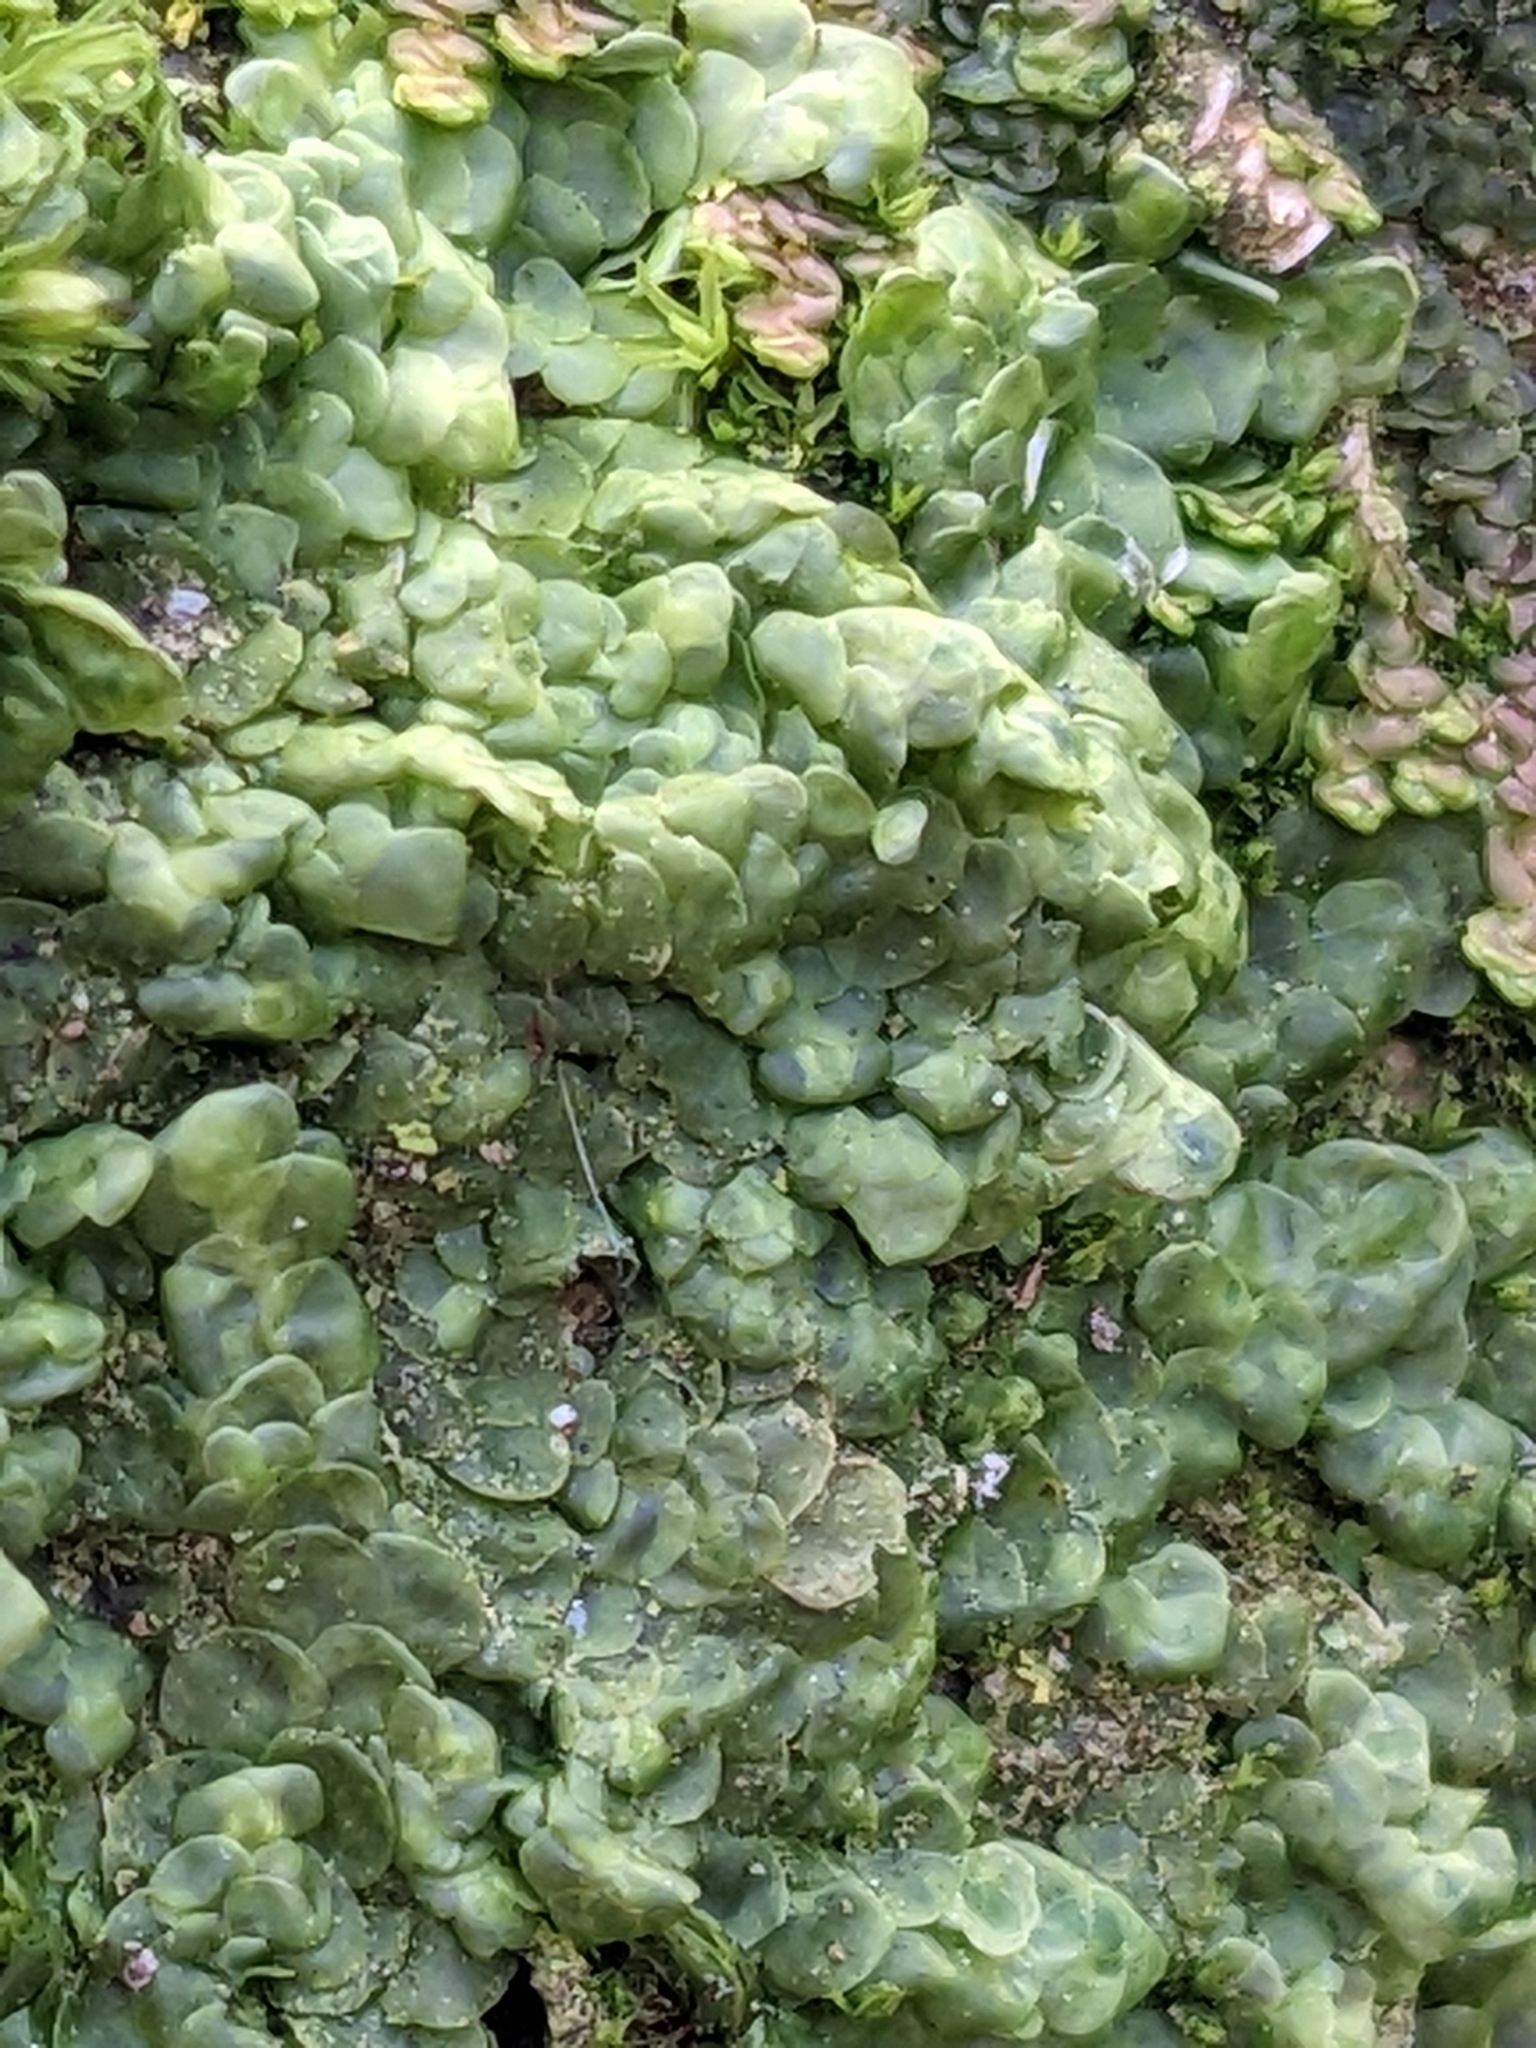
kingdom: Plantae
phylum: Marchantiophyta
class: Jungermanniopsida
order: Porellales
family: Radulaceae
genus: Radula
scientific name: Radula complanata
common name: Flat-leaved scalewort
